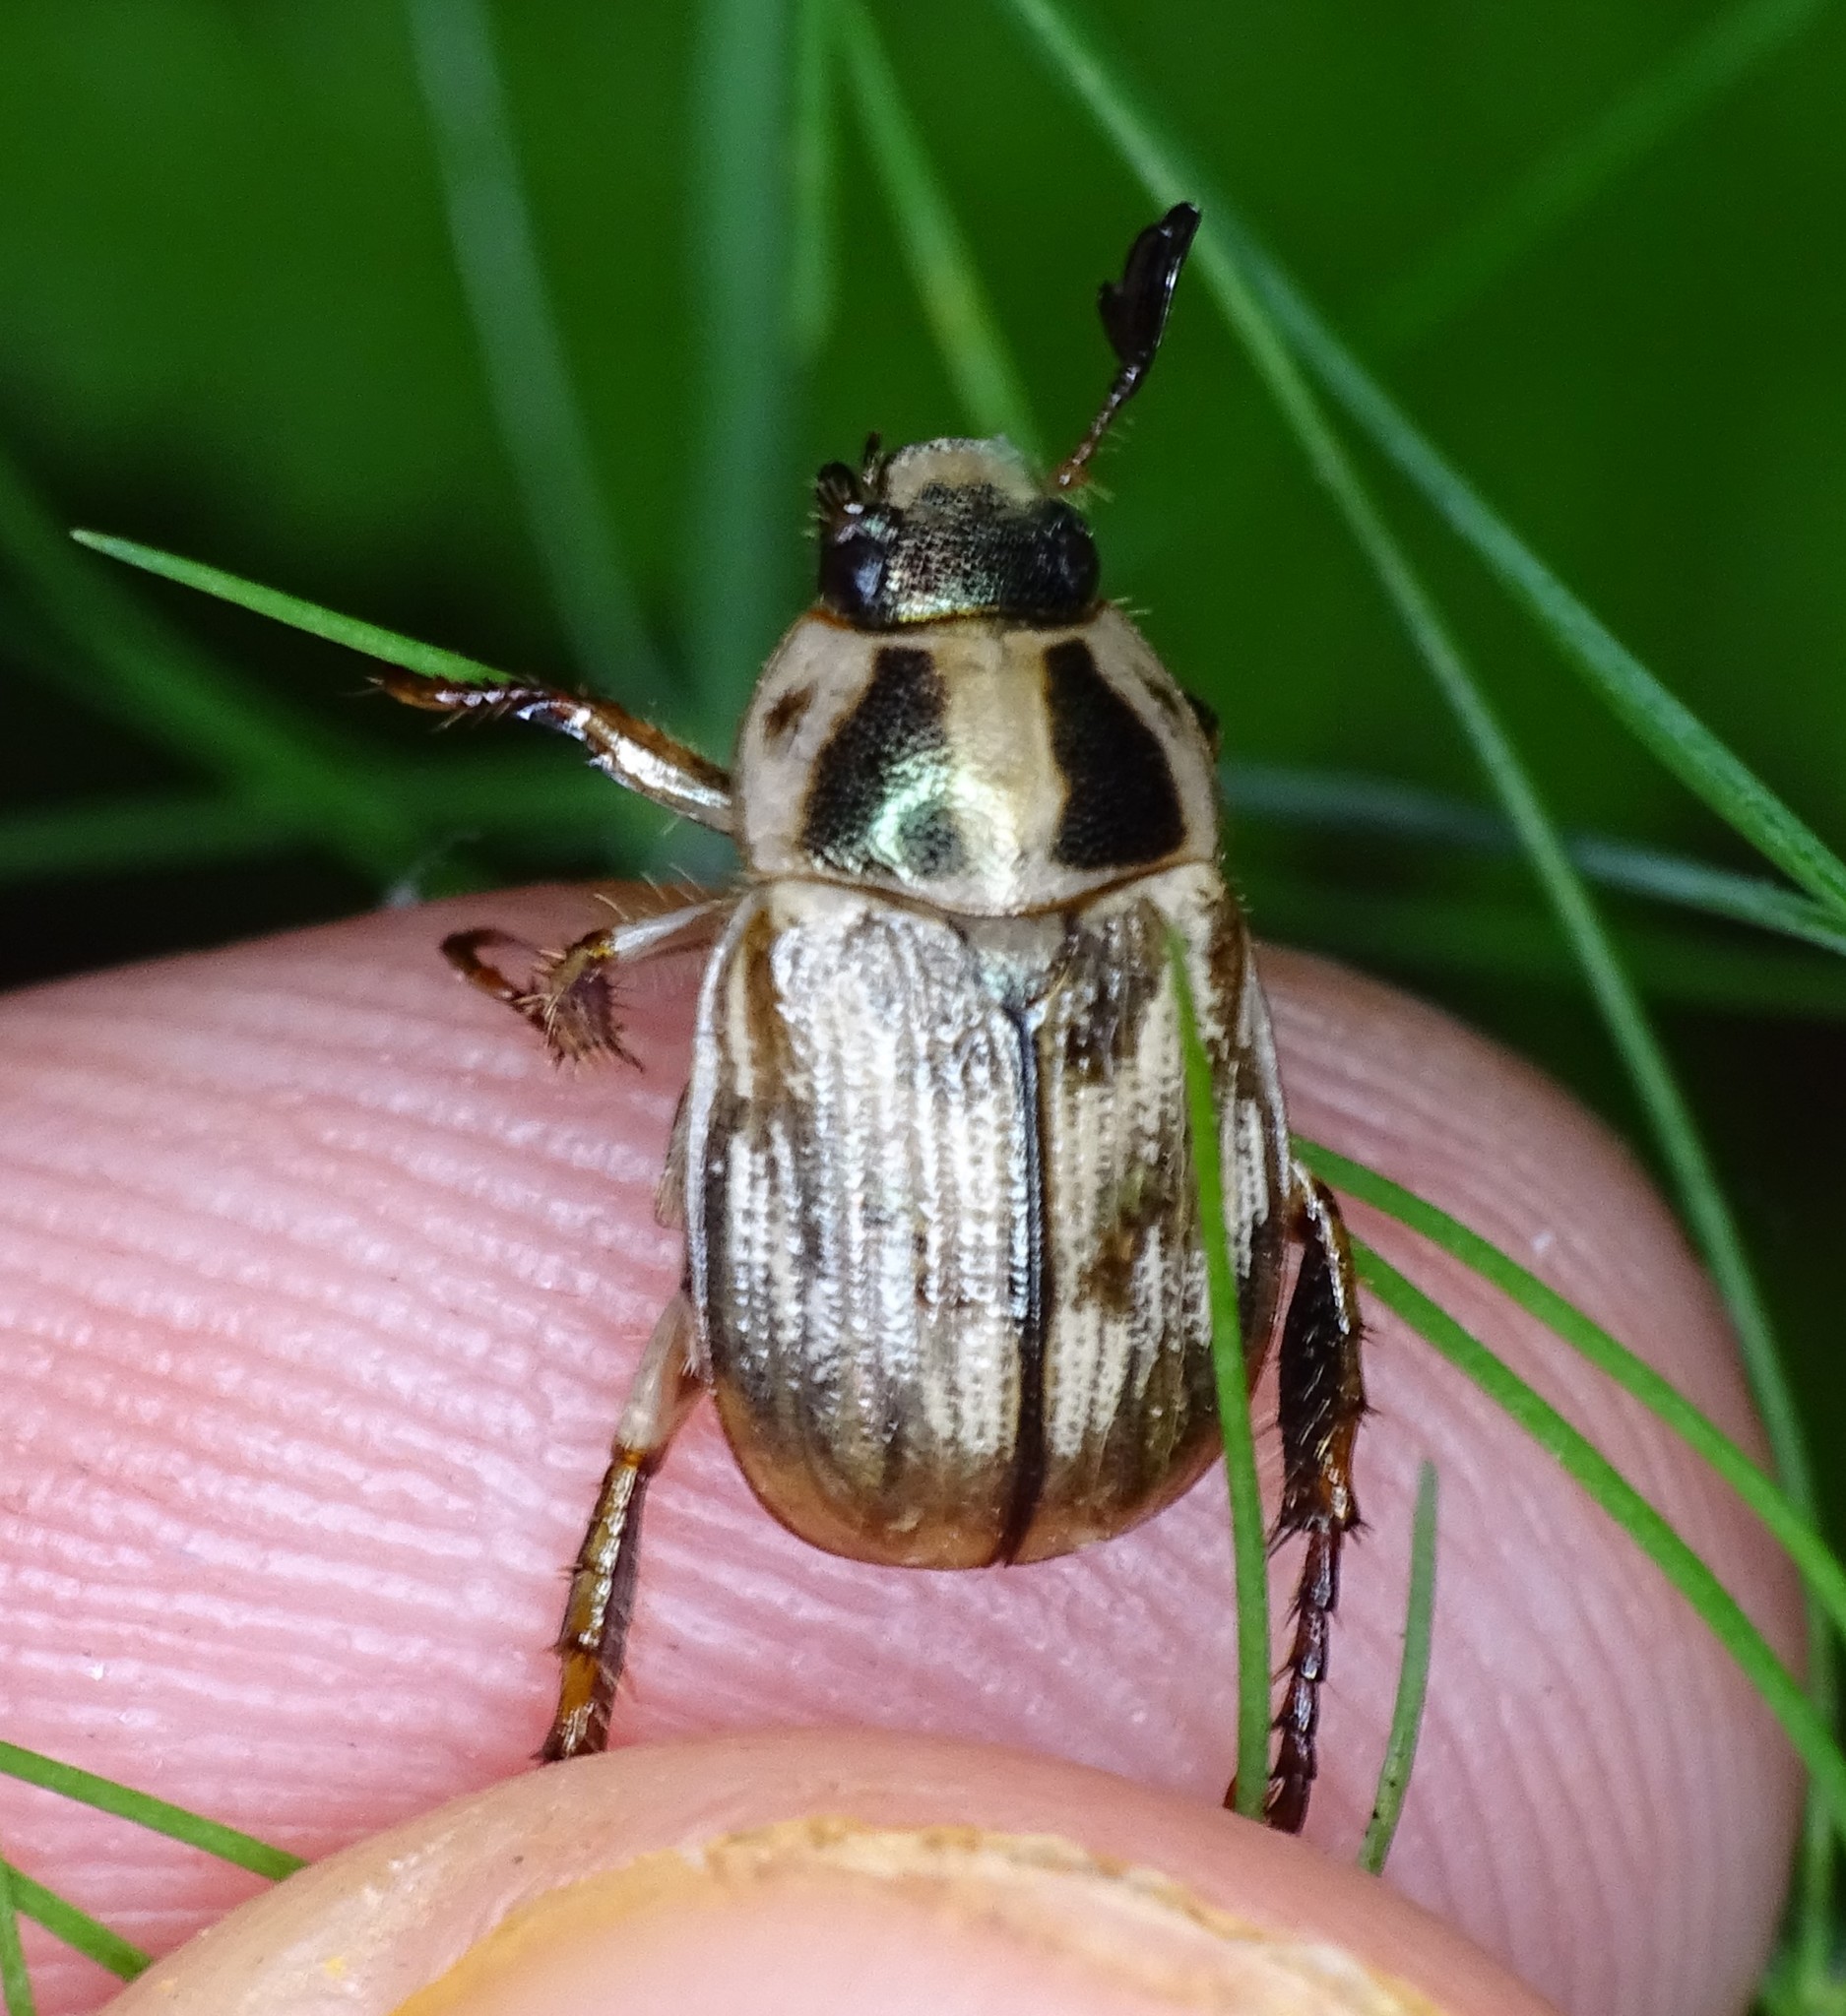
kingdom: Animalia
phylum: Arthropoda
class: Insecta
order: Coleoptera
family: Scarabaeidae
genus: Exomala
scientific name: Exomala orientalis
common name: Oriental beetle
